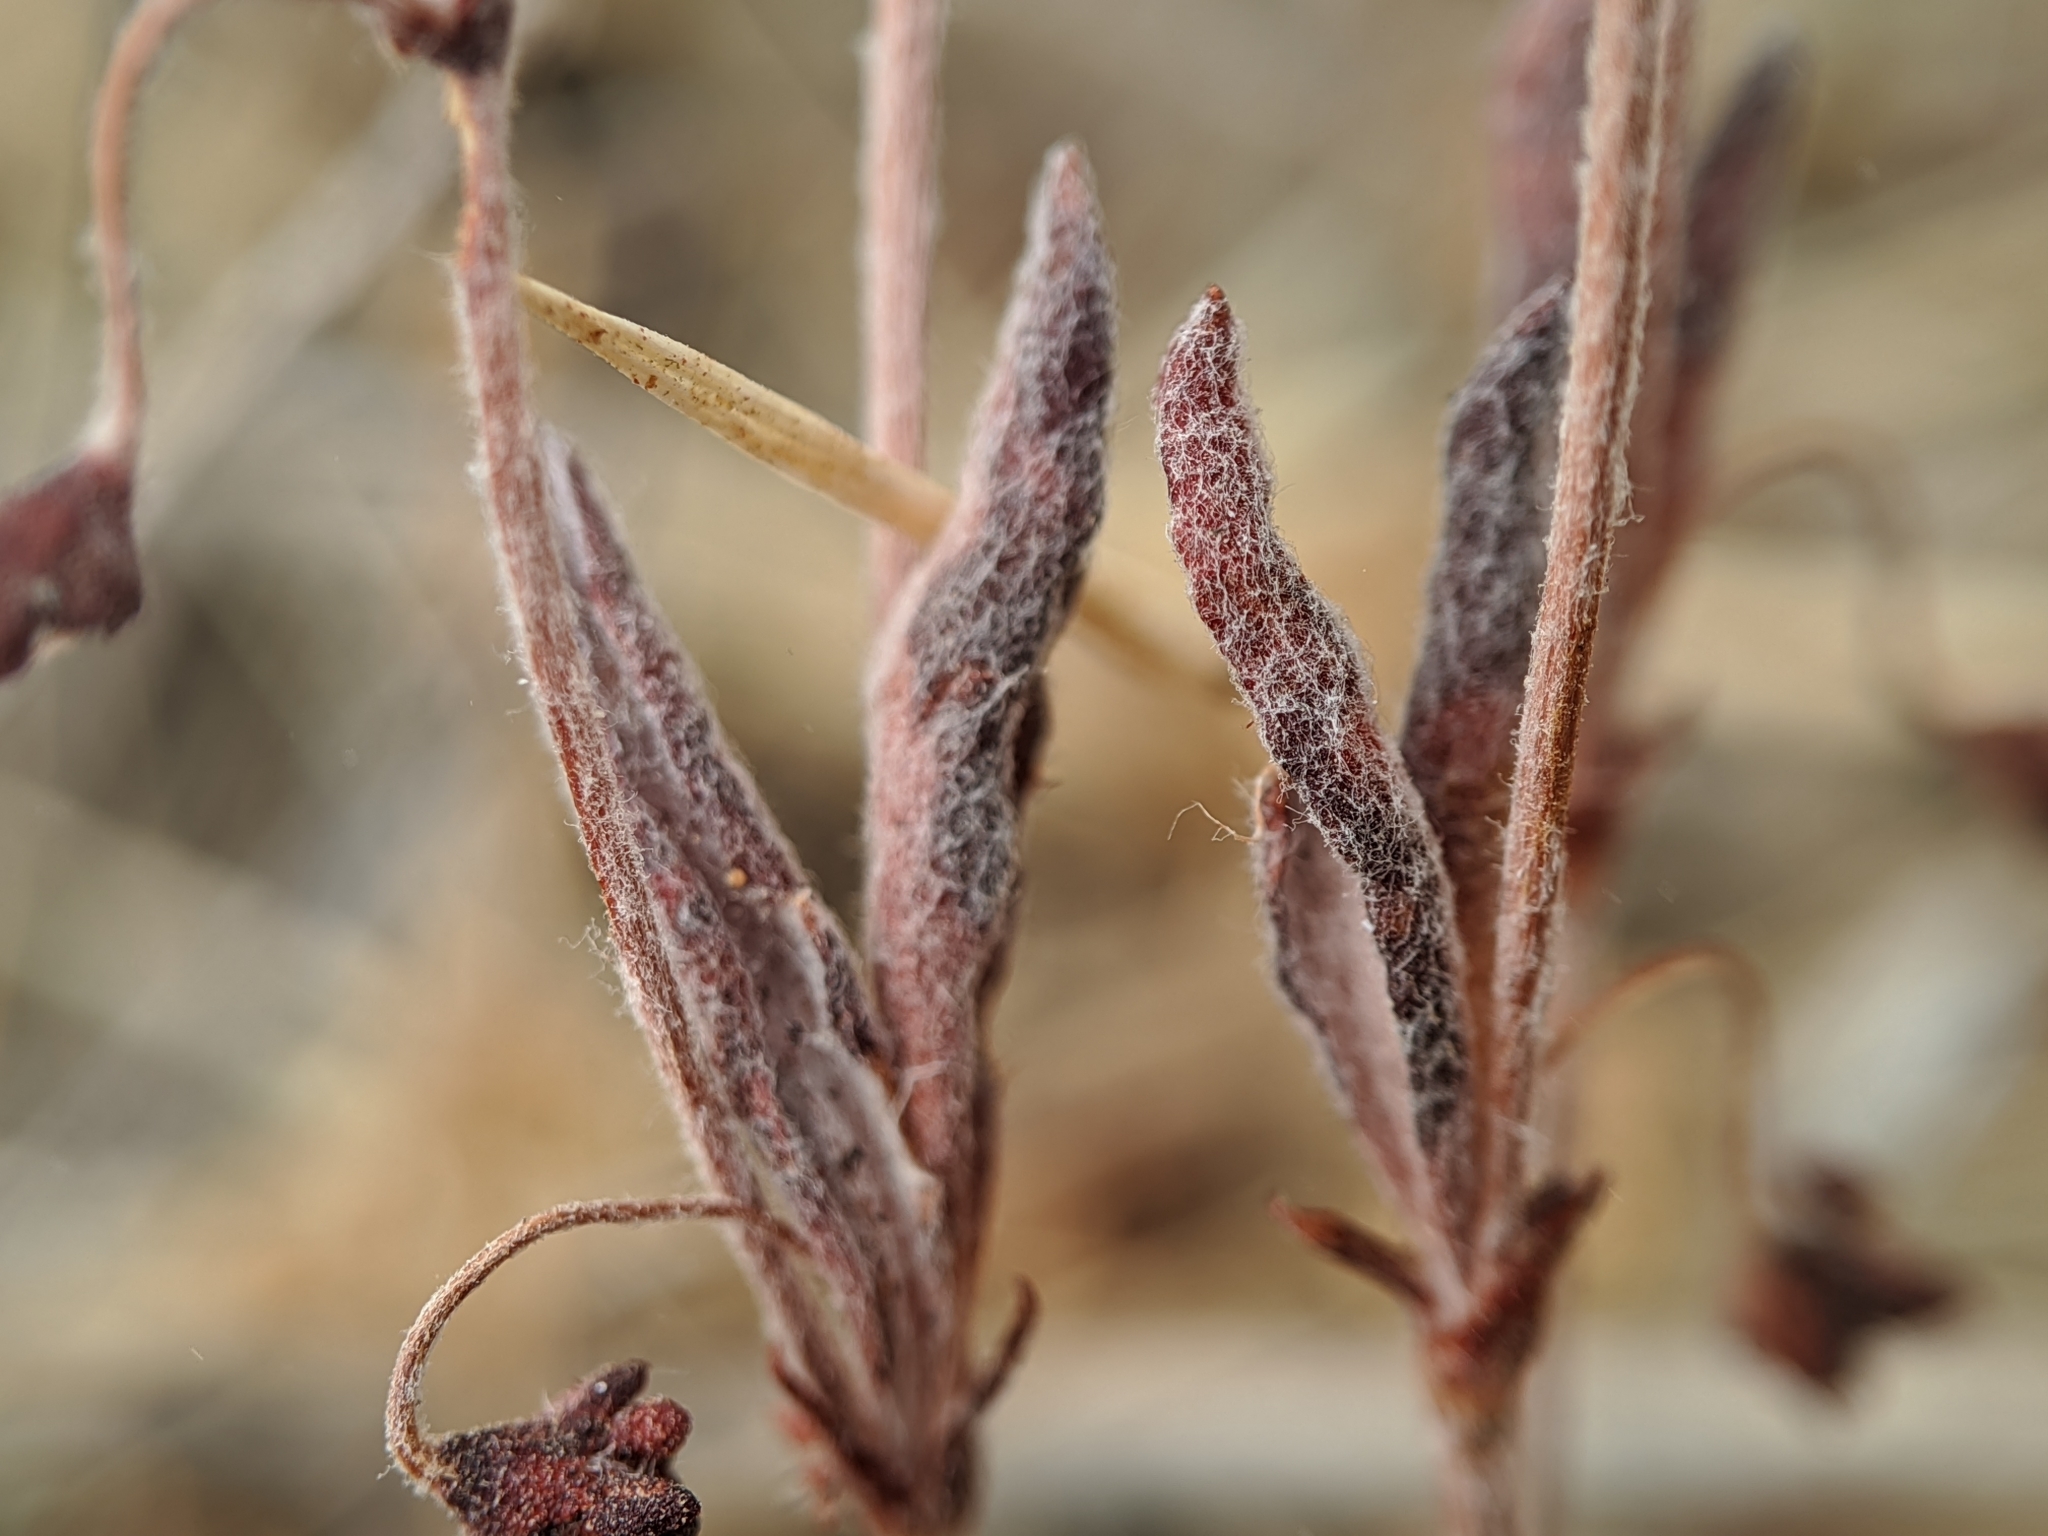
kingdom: Plantae
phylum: Tracheophyta
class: Magnoliopsida
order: Caryophyllales
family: Polygonaceae
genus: Eriogonum
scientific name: Eriogonum viridescens
